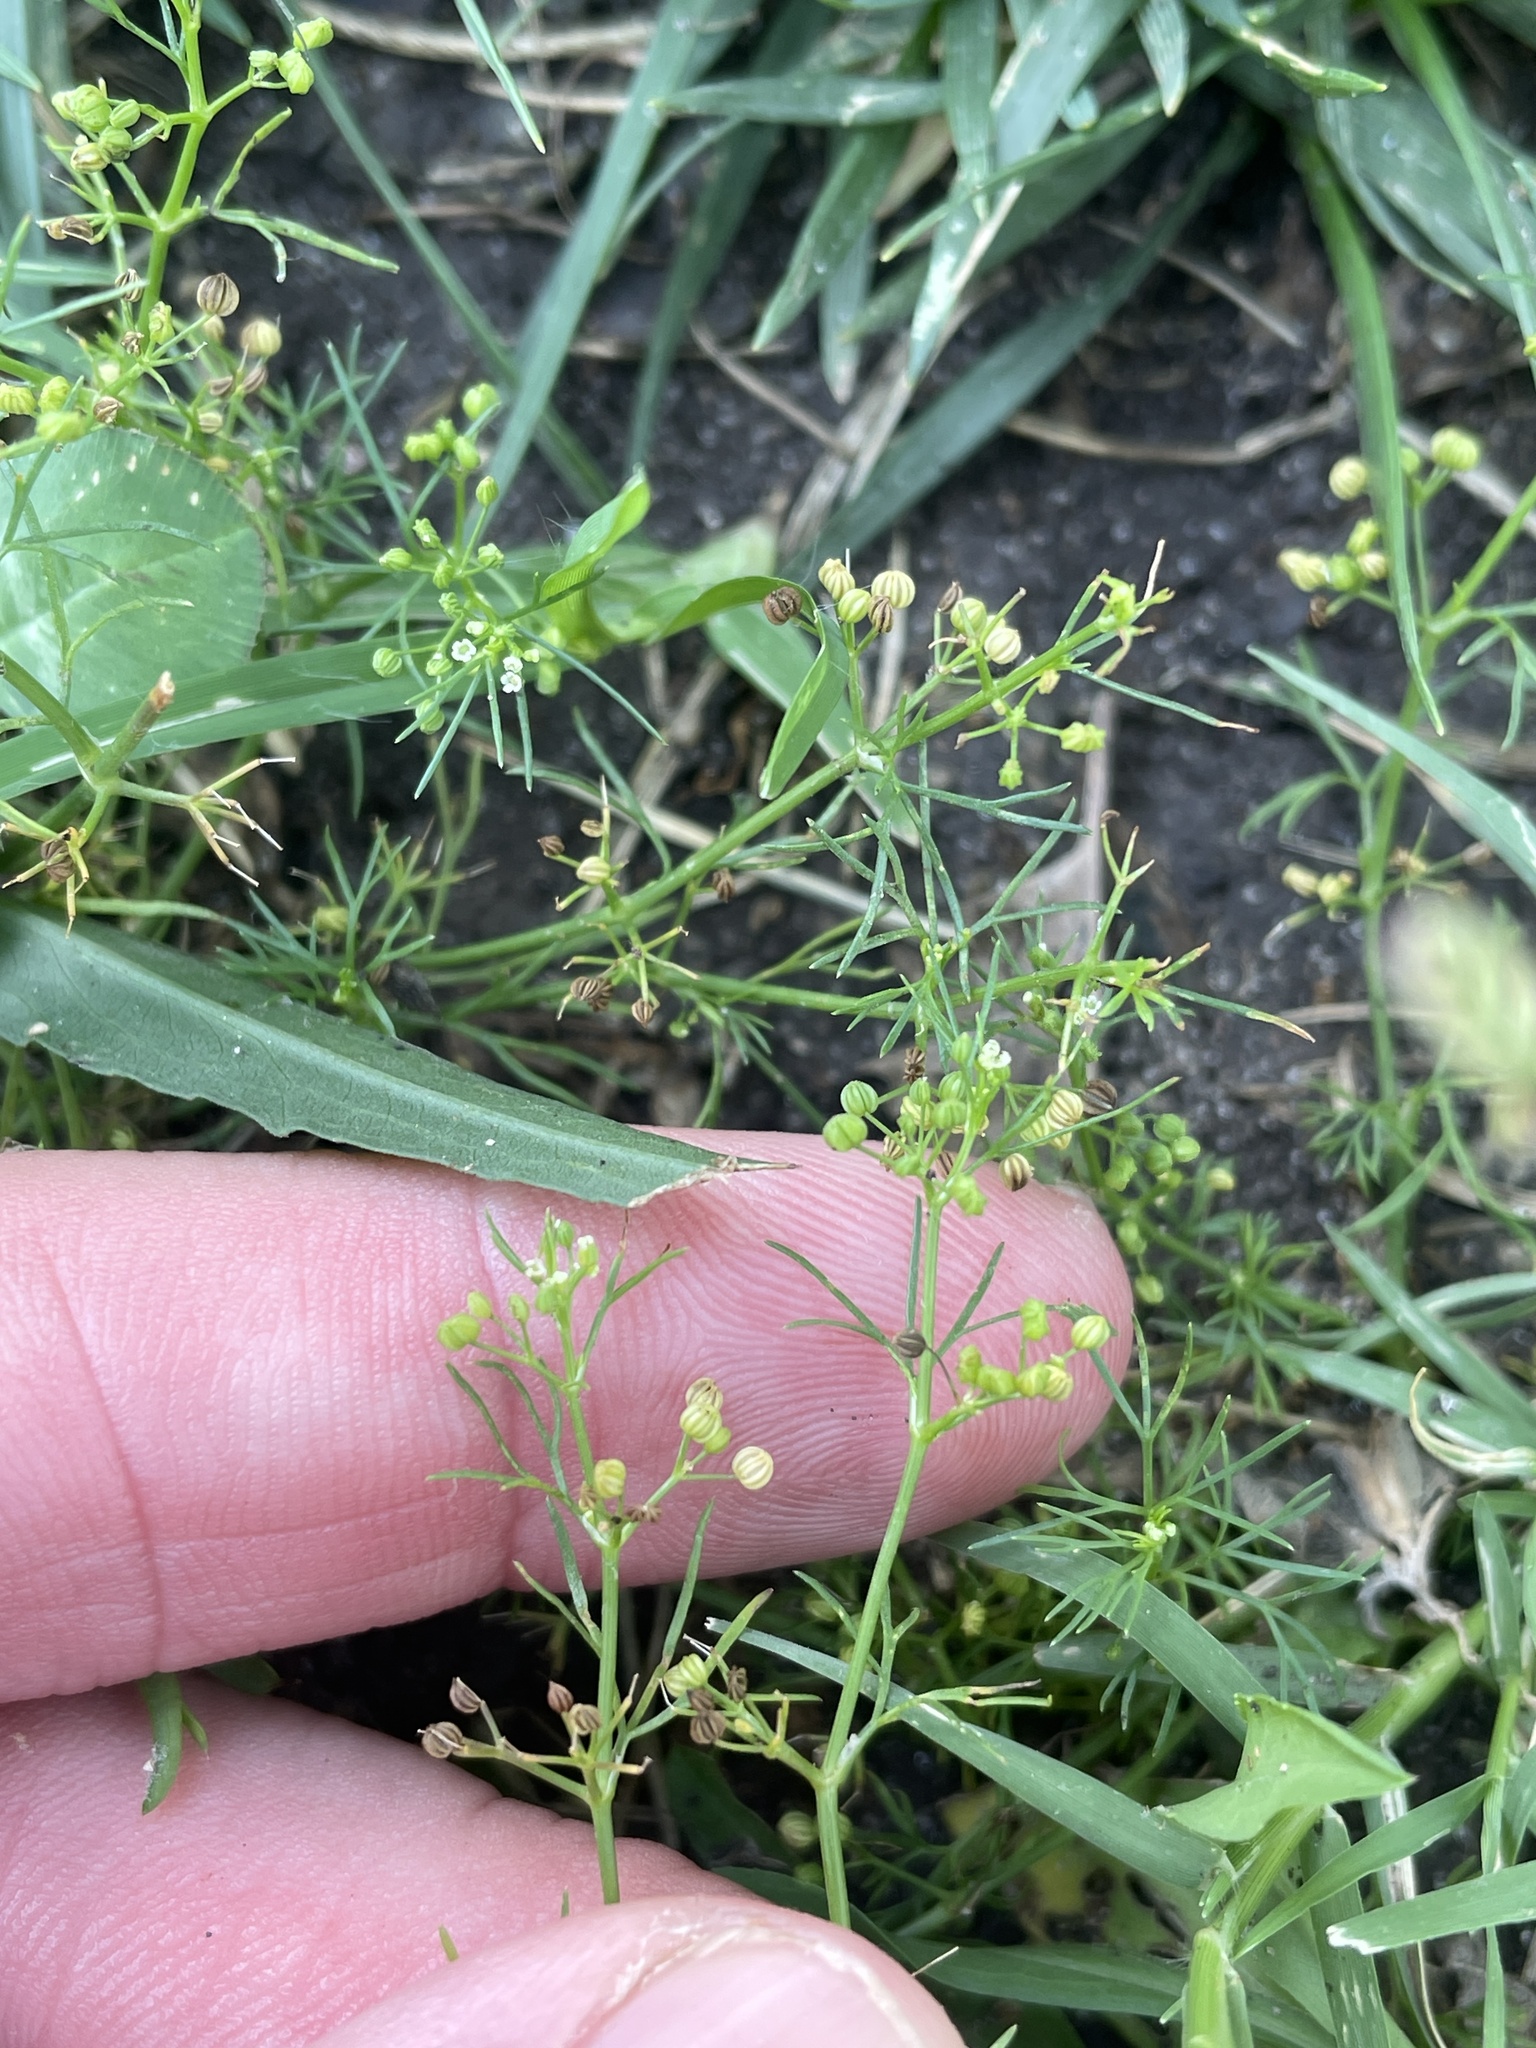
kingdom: Plantae
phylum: Tracheophyta
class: Magnoliopsida
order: Apiales
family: Apiaceae
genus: Cyclospermum
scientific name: Cyclospermum leptophyllum
